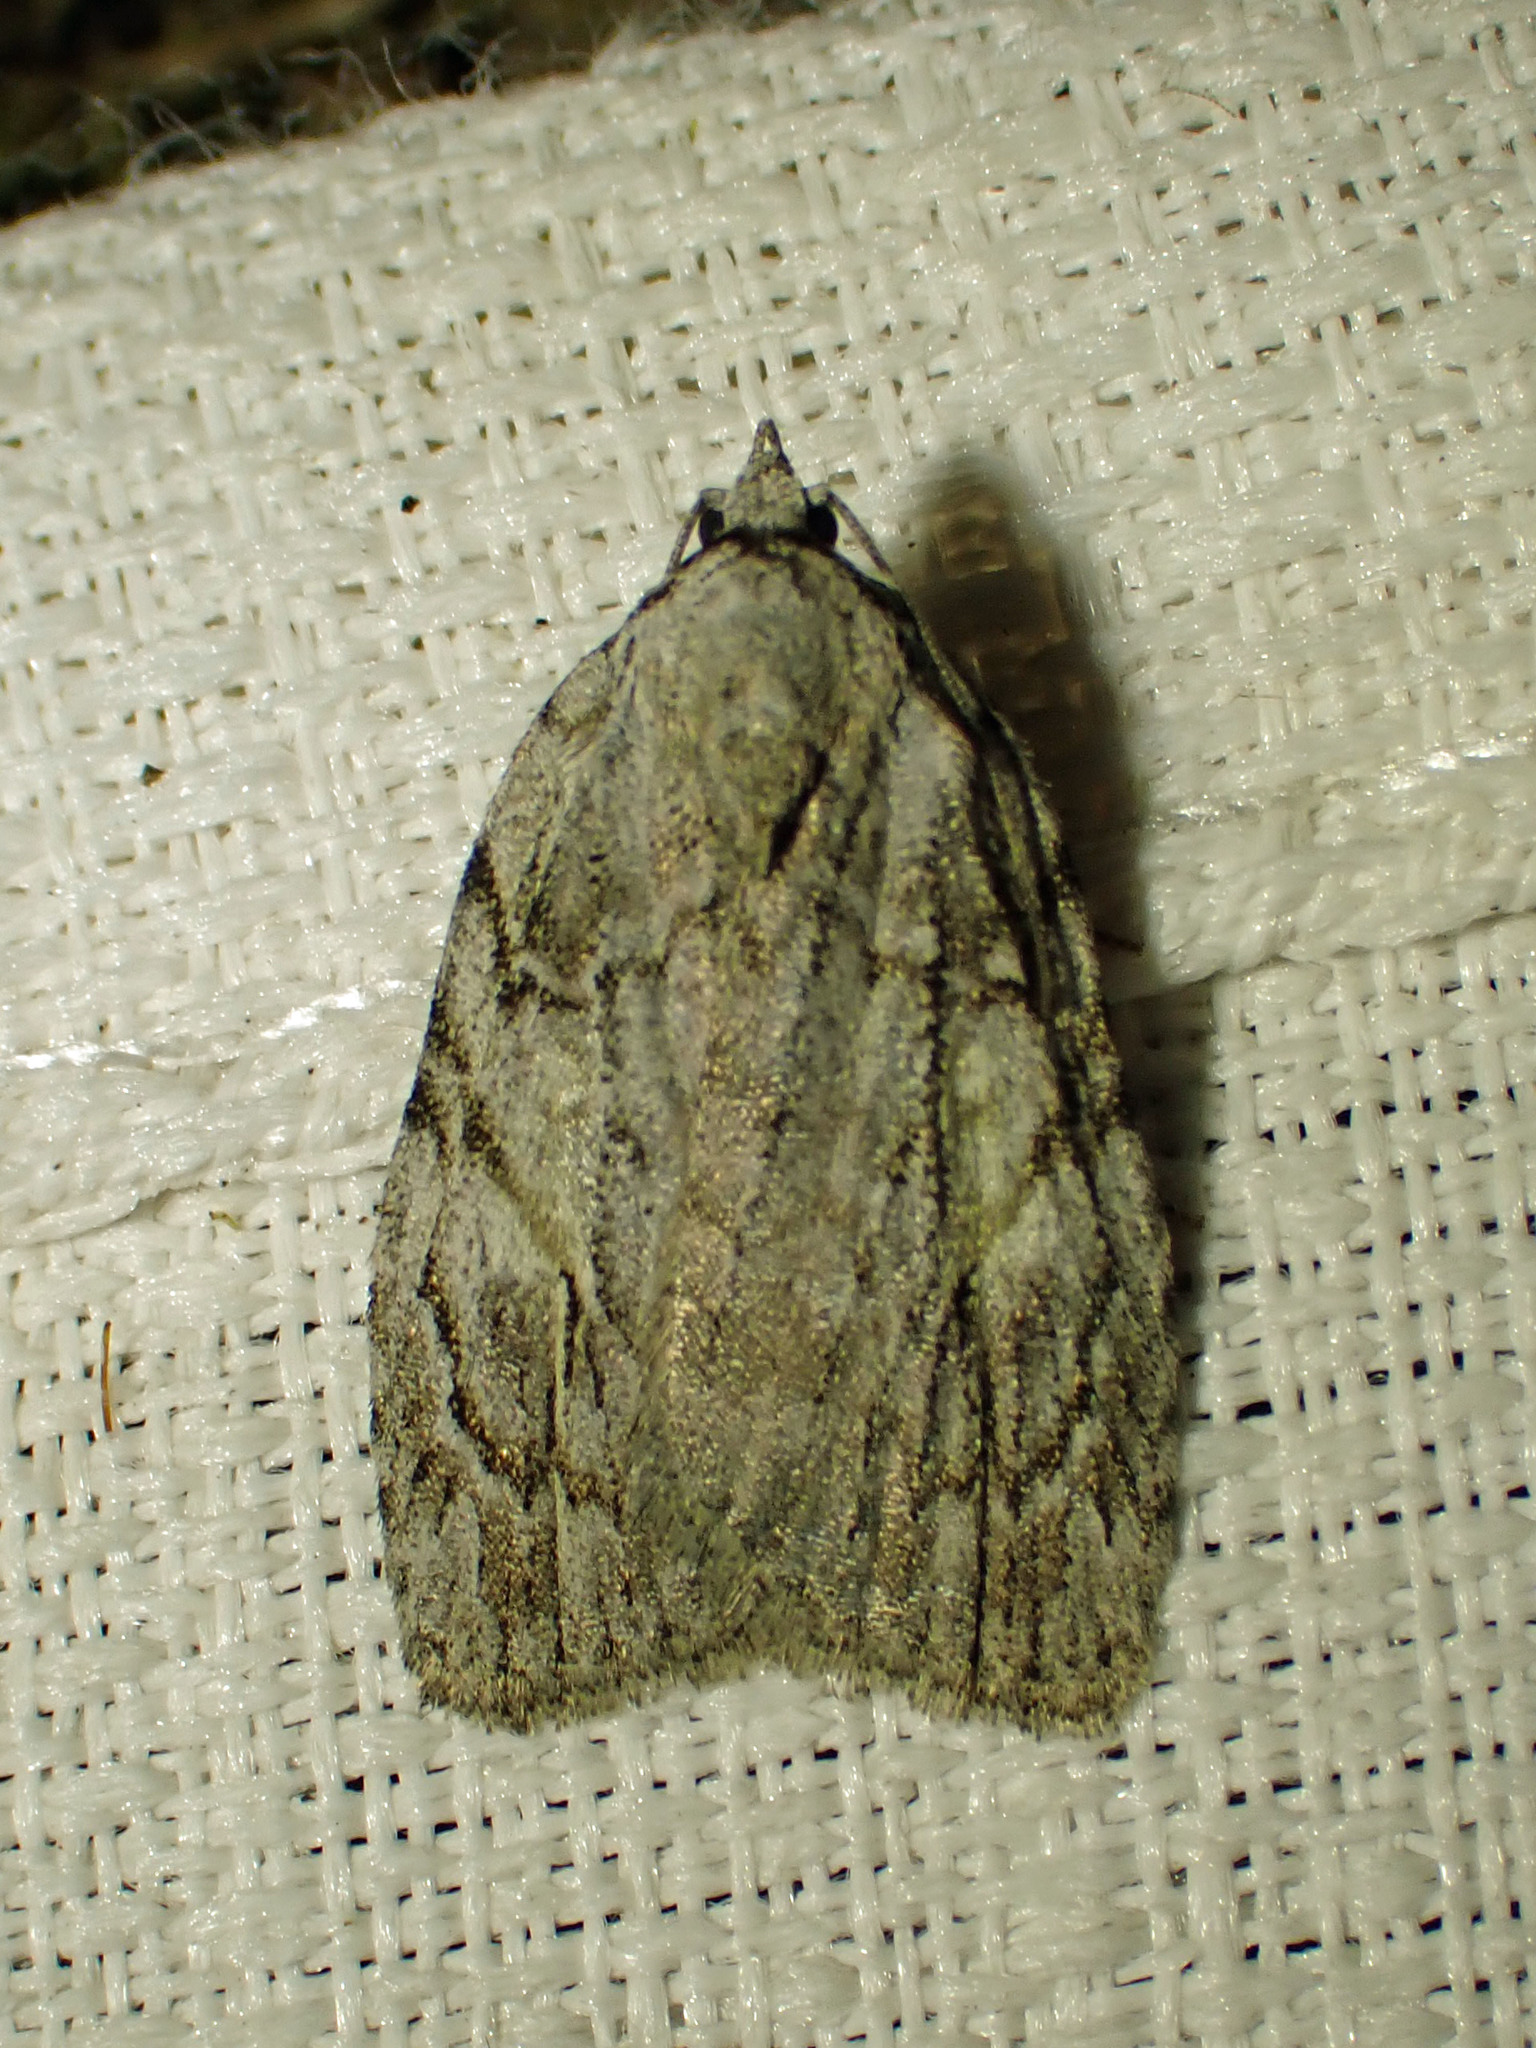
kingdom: Animalia
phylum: Arthropoda
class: Insecta
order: Lepidoptera
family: Noctuidae
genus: Balsa
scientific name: Balsa labecula
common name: White-blotched balsa moth
